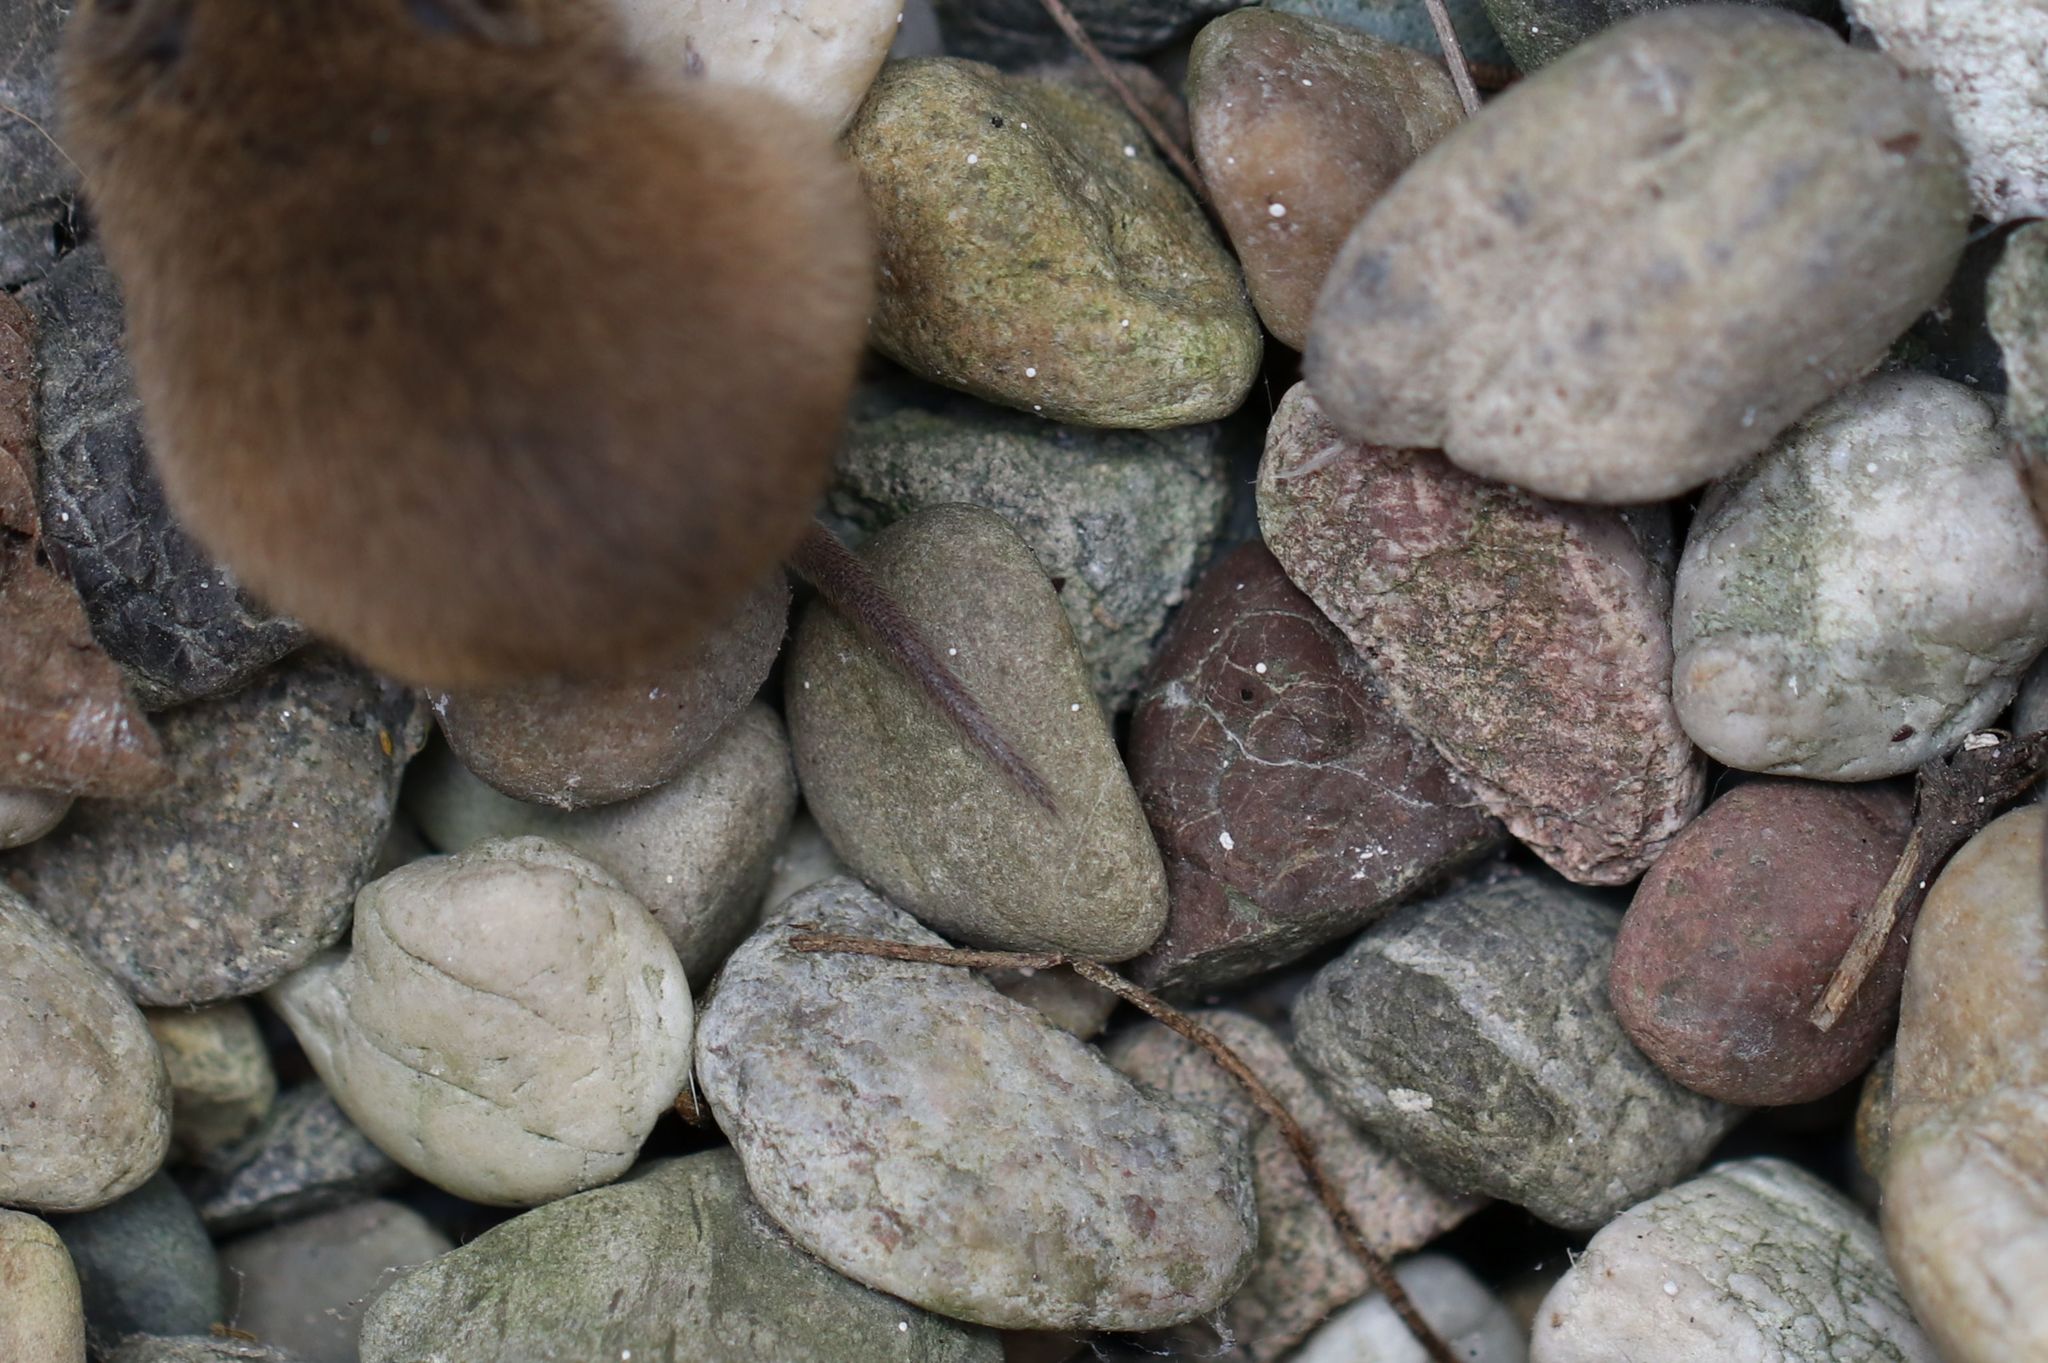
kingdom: Animalia
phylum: Chordata
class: Mammalia
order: Rodentia
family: Cricetidae
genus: Microtus
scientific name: Microtus arvalis
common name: Common vole
